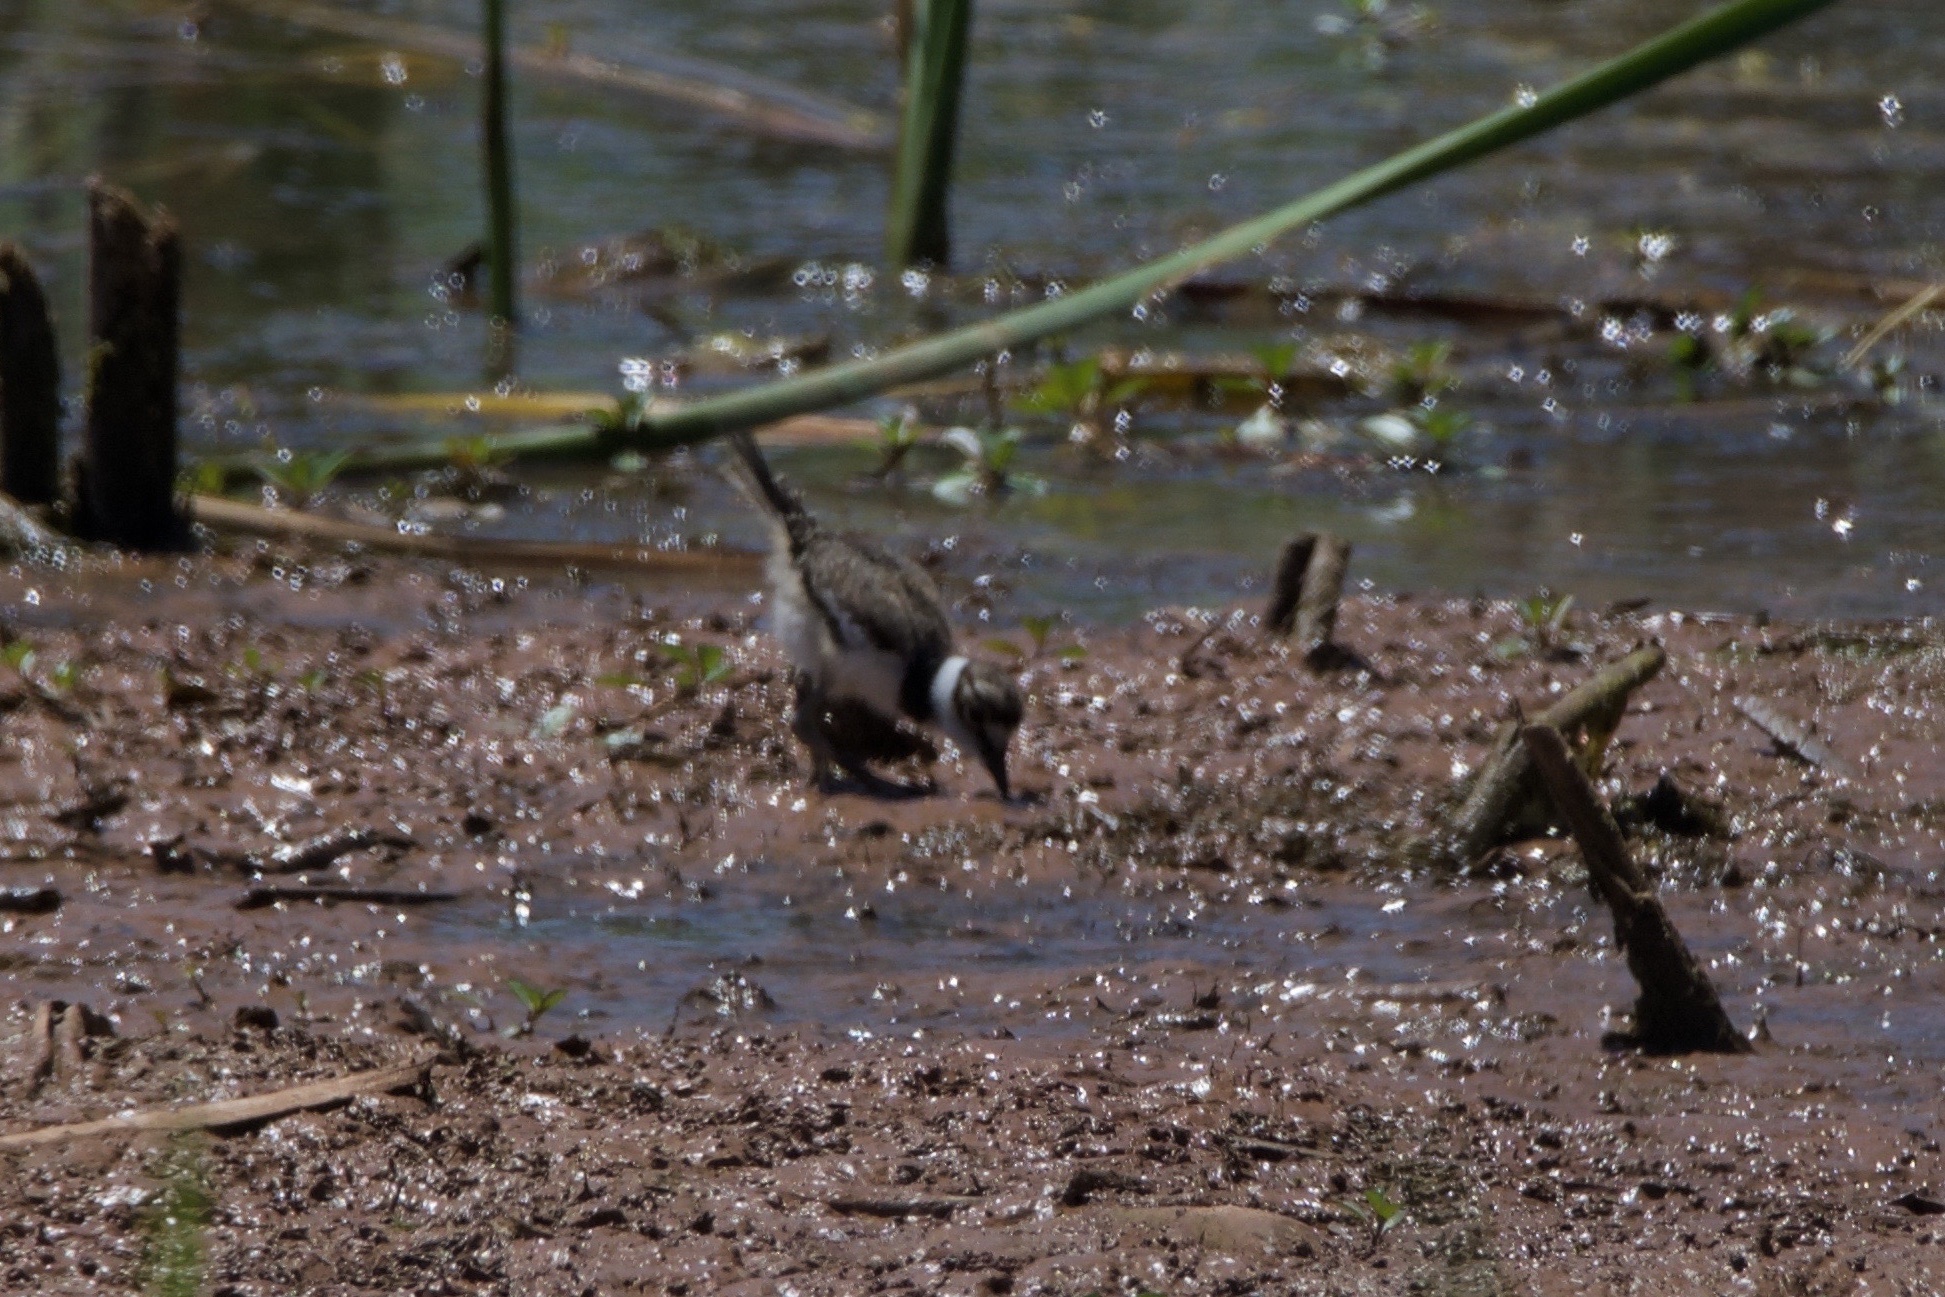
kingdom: Animalia
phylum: Chordata
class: Aves
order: Charadriiformes
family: Charadriidae
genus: Charadrius
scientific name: Charadrius vociferus
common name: Killdeer
